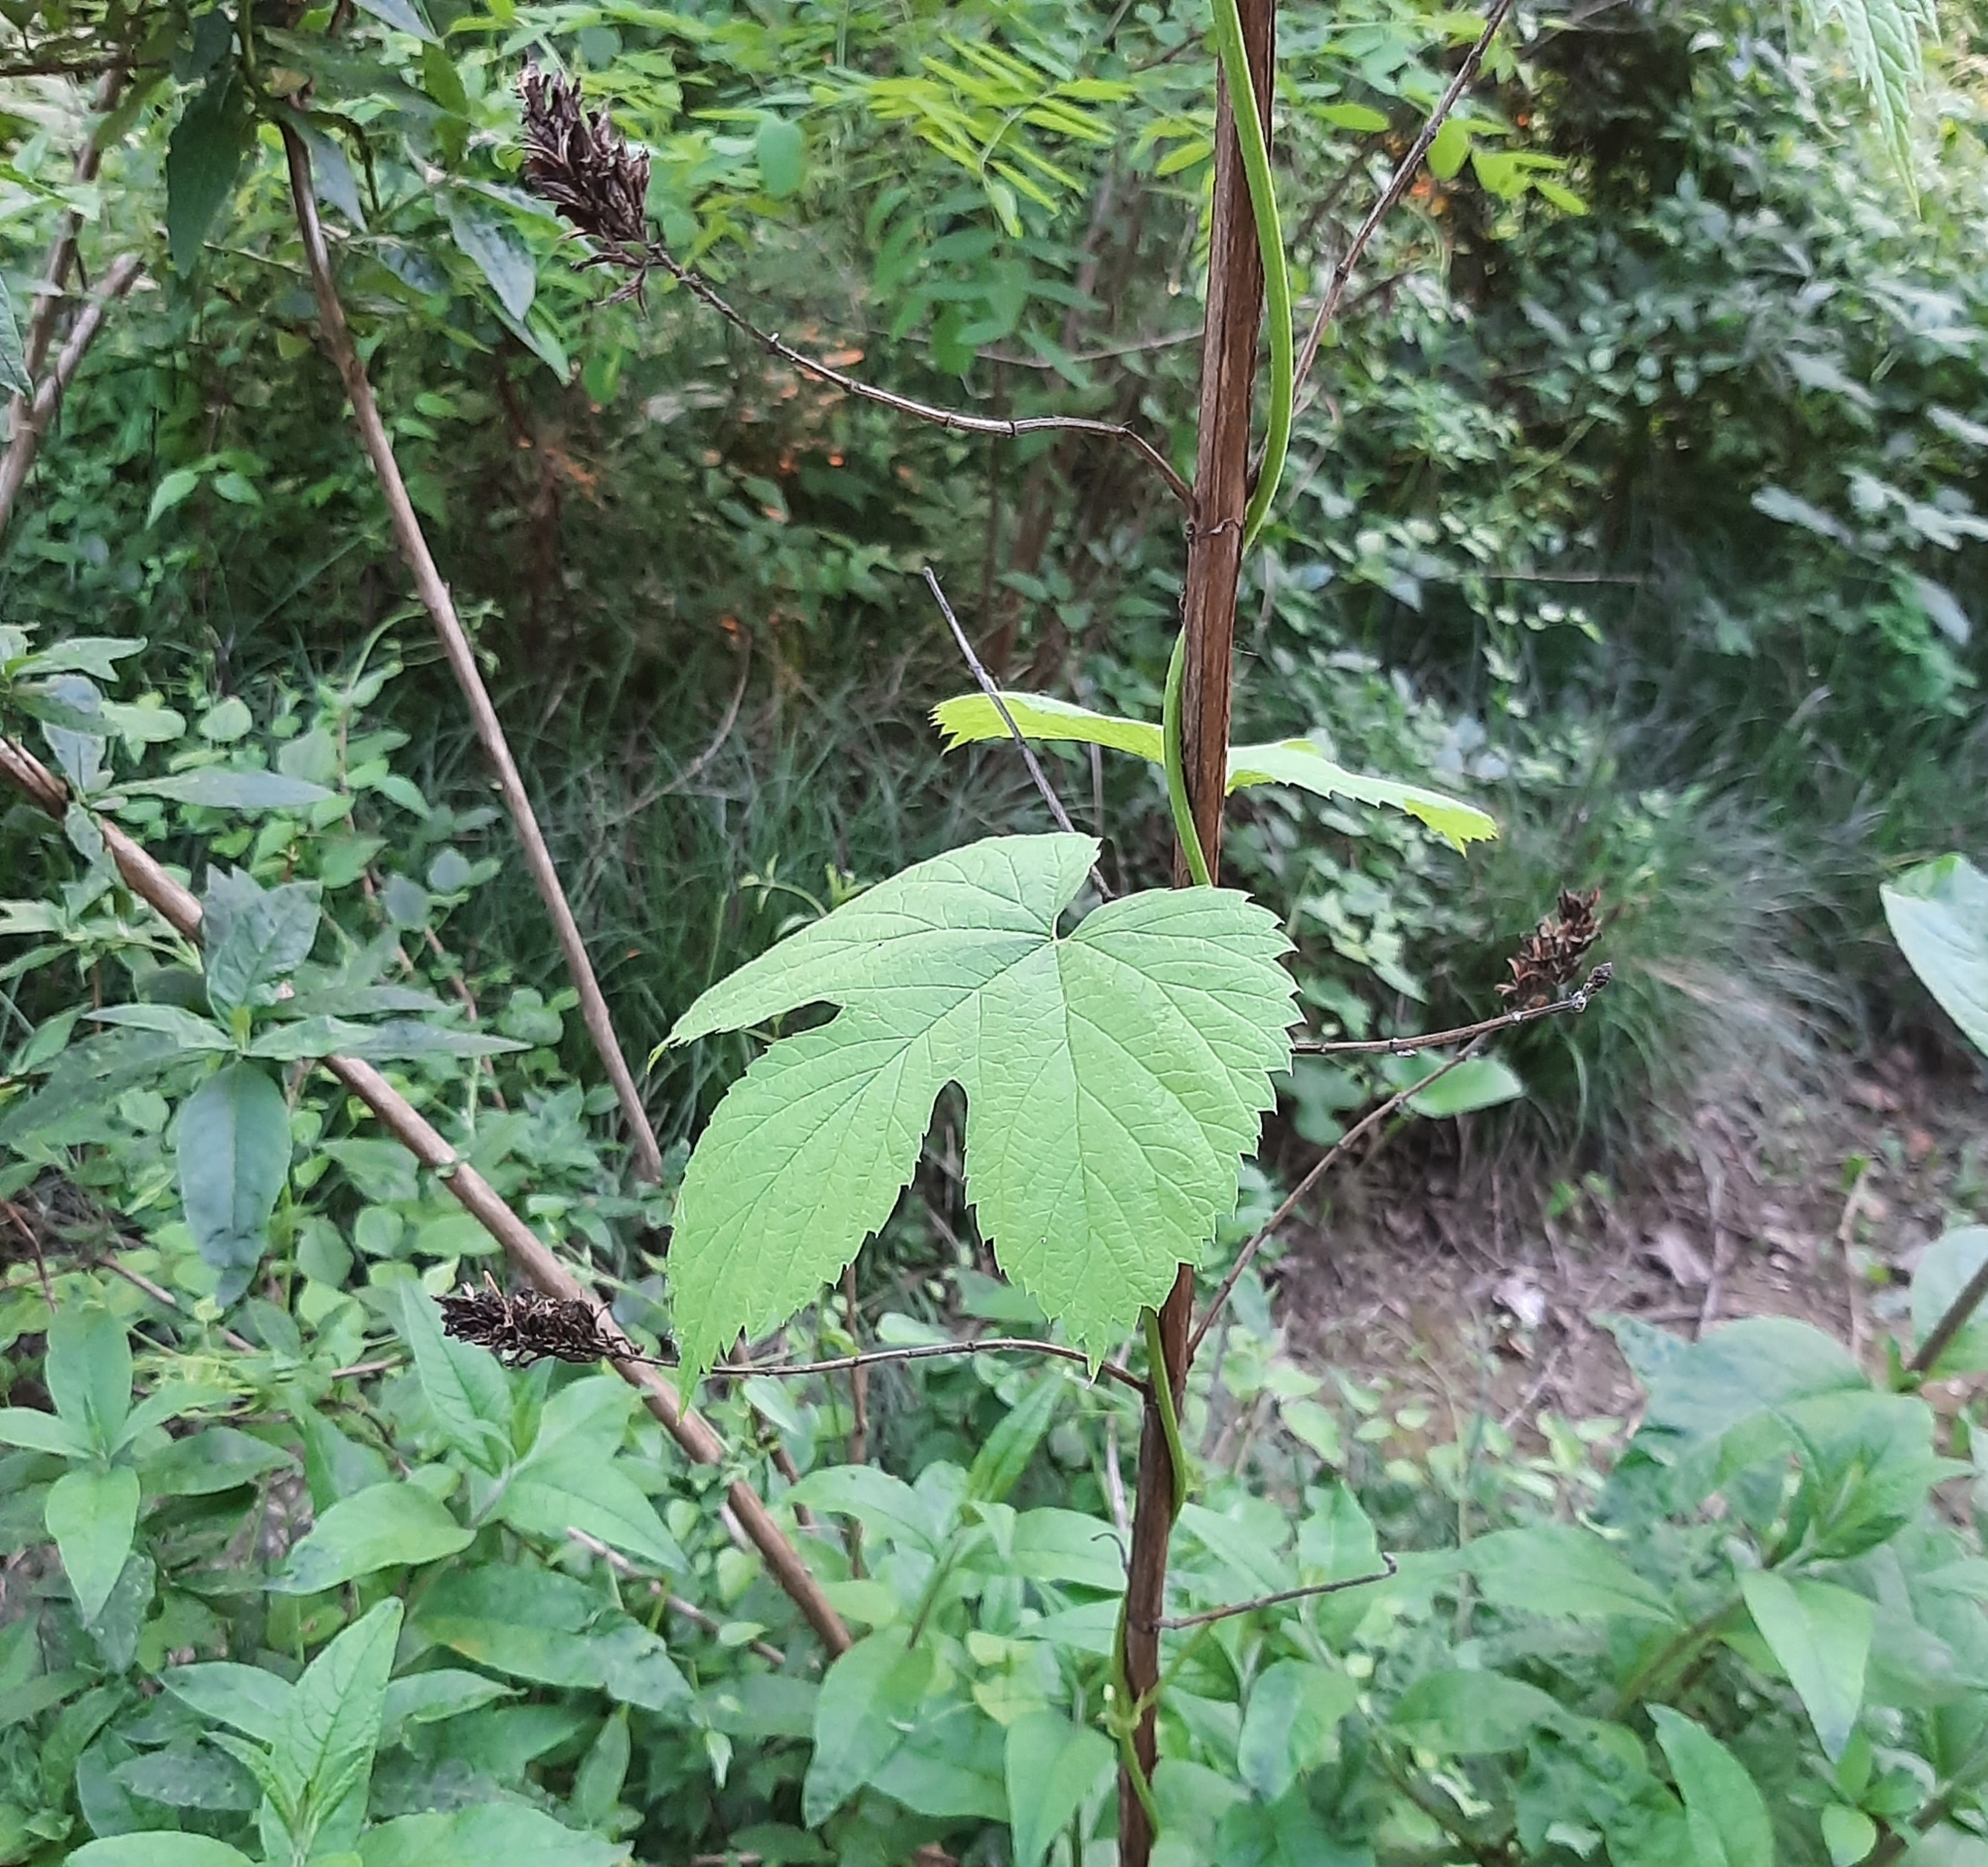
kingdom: Plantae
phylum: Tracheophyta
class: Magnoliopsida
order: Rosales
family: Cannabaceae
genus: Humulus
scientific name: Humulus lupulus
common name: Hop
